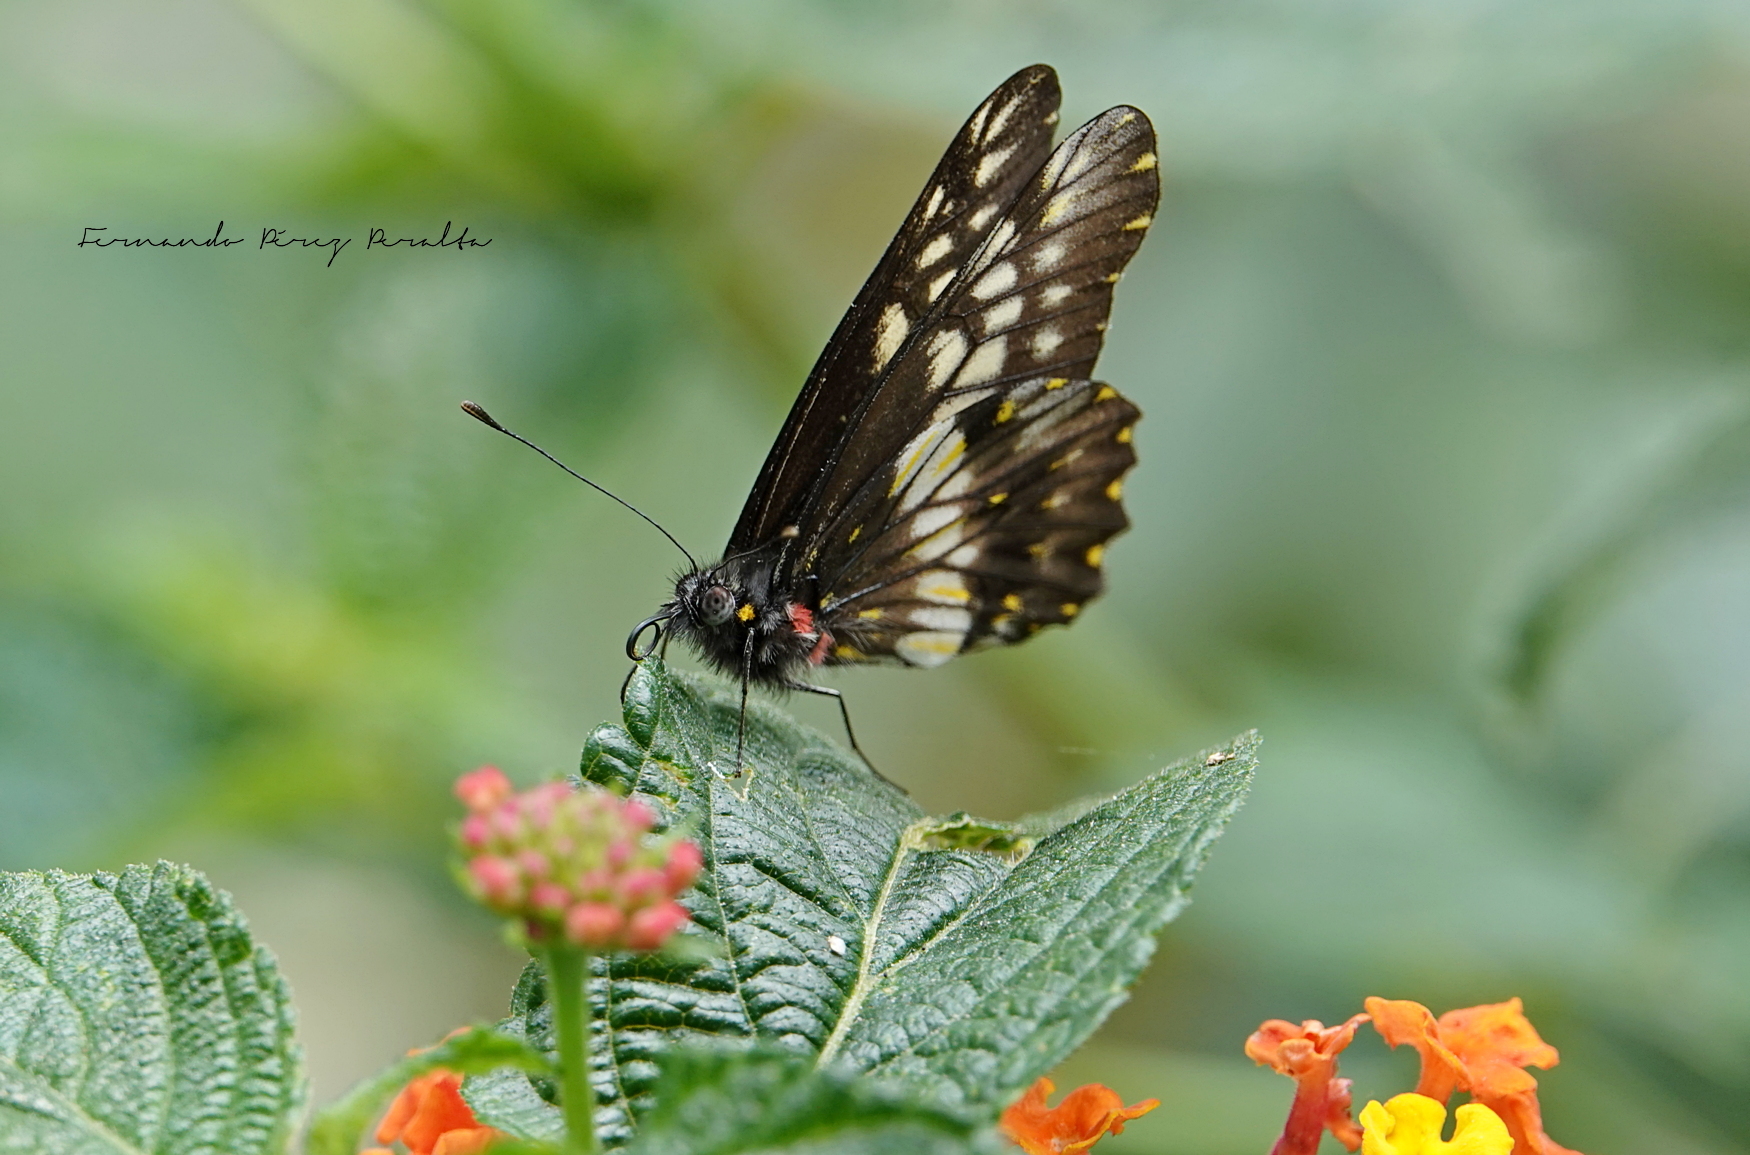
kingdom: Animalia
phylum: Arthropoda
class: Insecta
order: Lepidoptera
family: Pieridae
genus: Archonias
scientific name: Archonias nimbice
